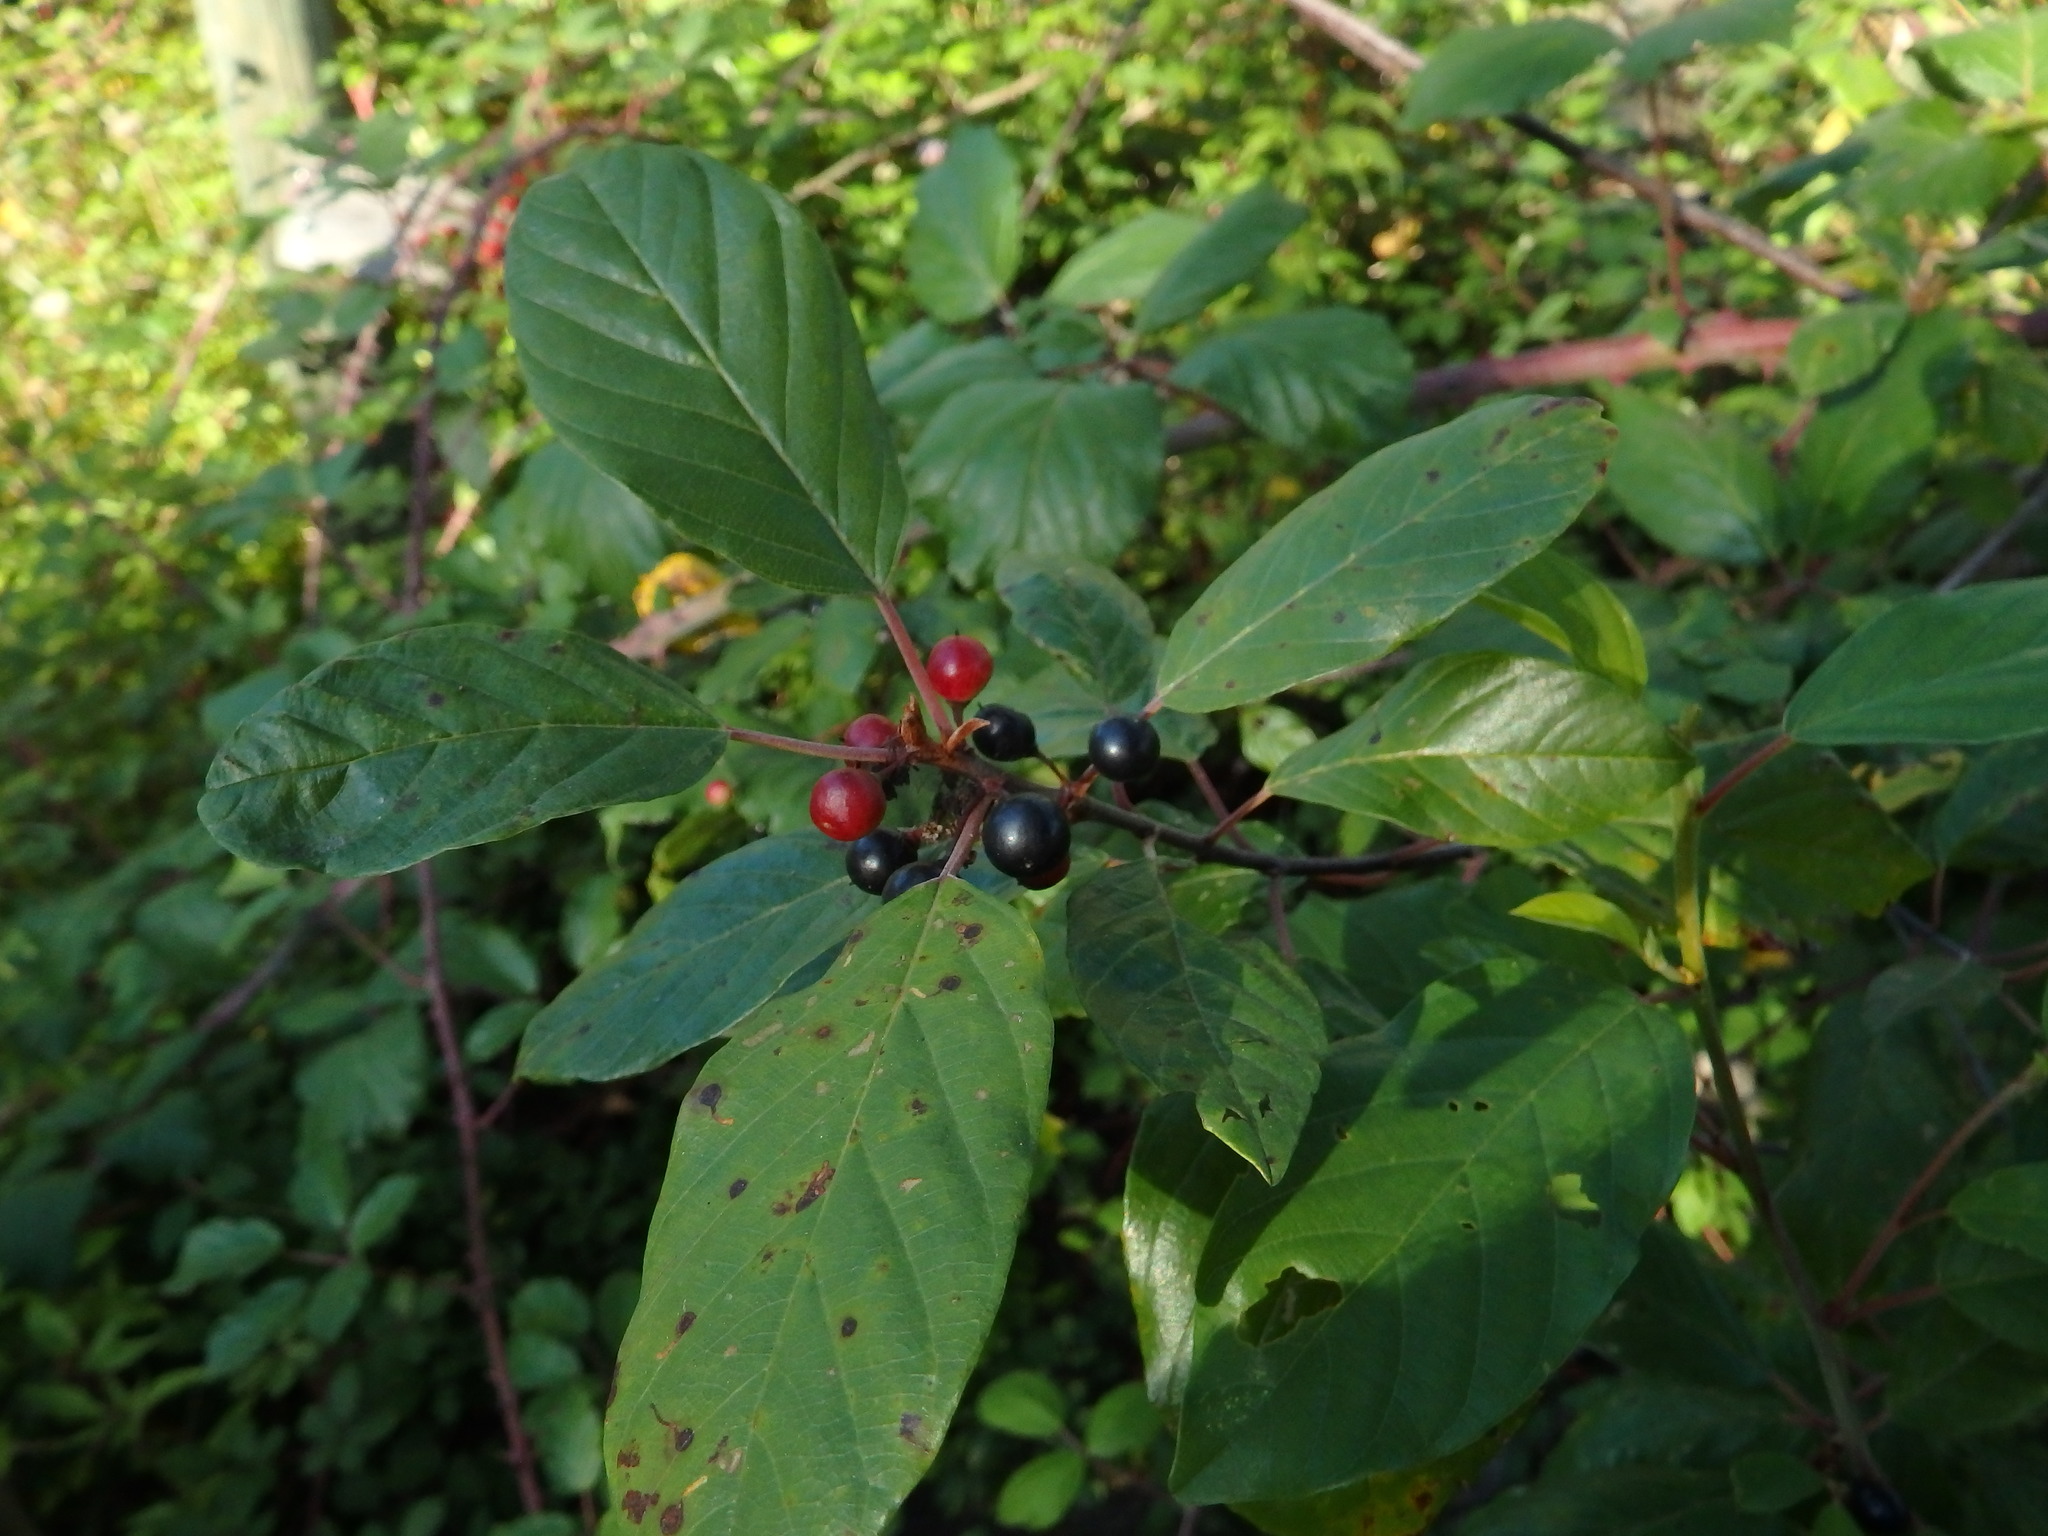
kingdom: Plantae
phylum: Tracheophyta
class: Magnoliopsida
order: Rosales
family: Rhamnaceae
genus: Frangula
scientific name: Frangula alnus
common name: Alder buckthorn
